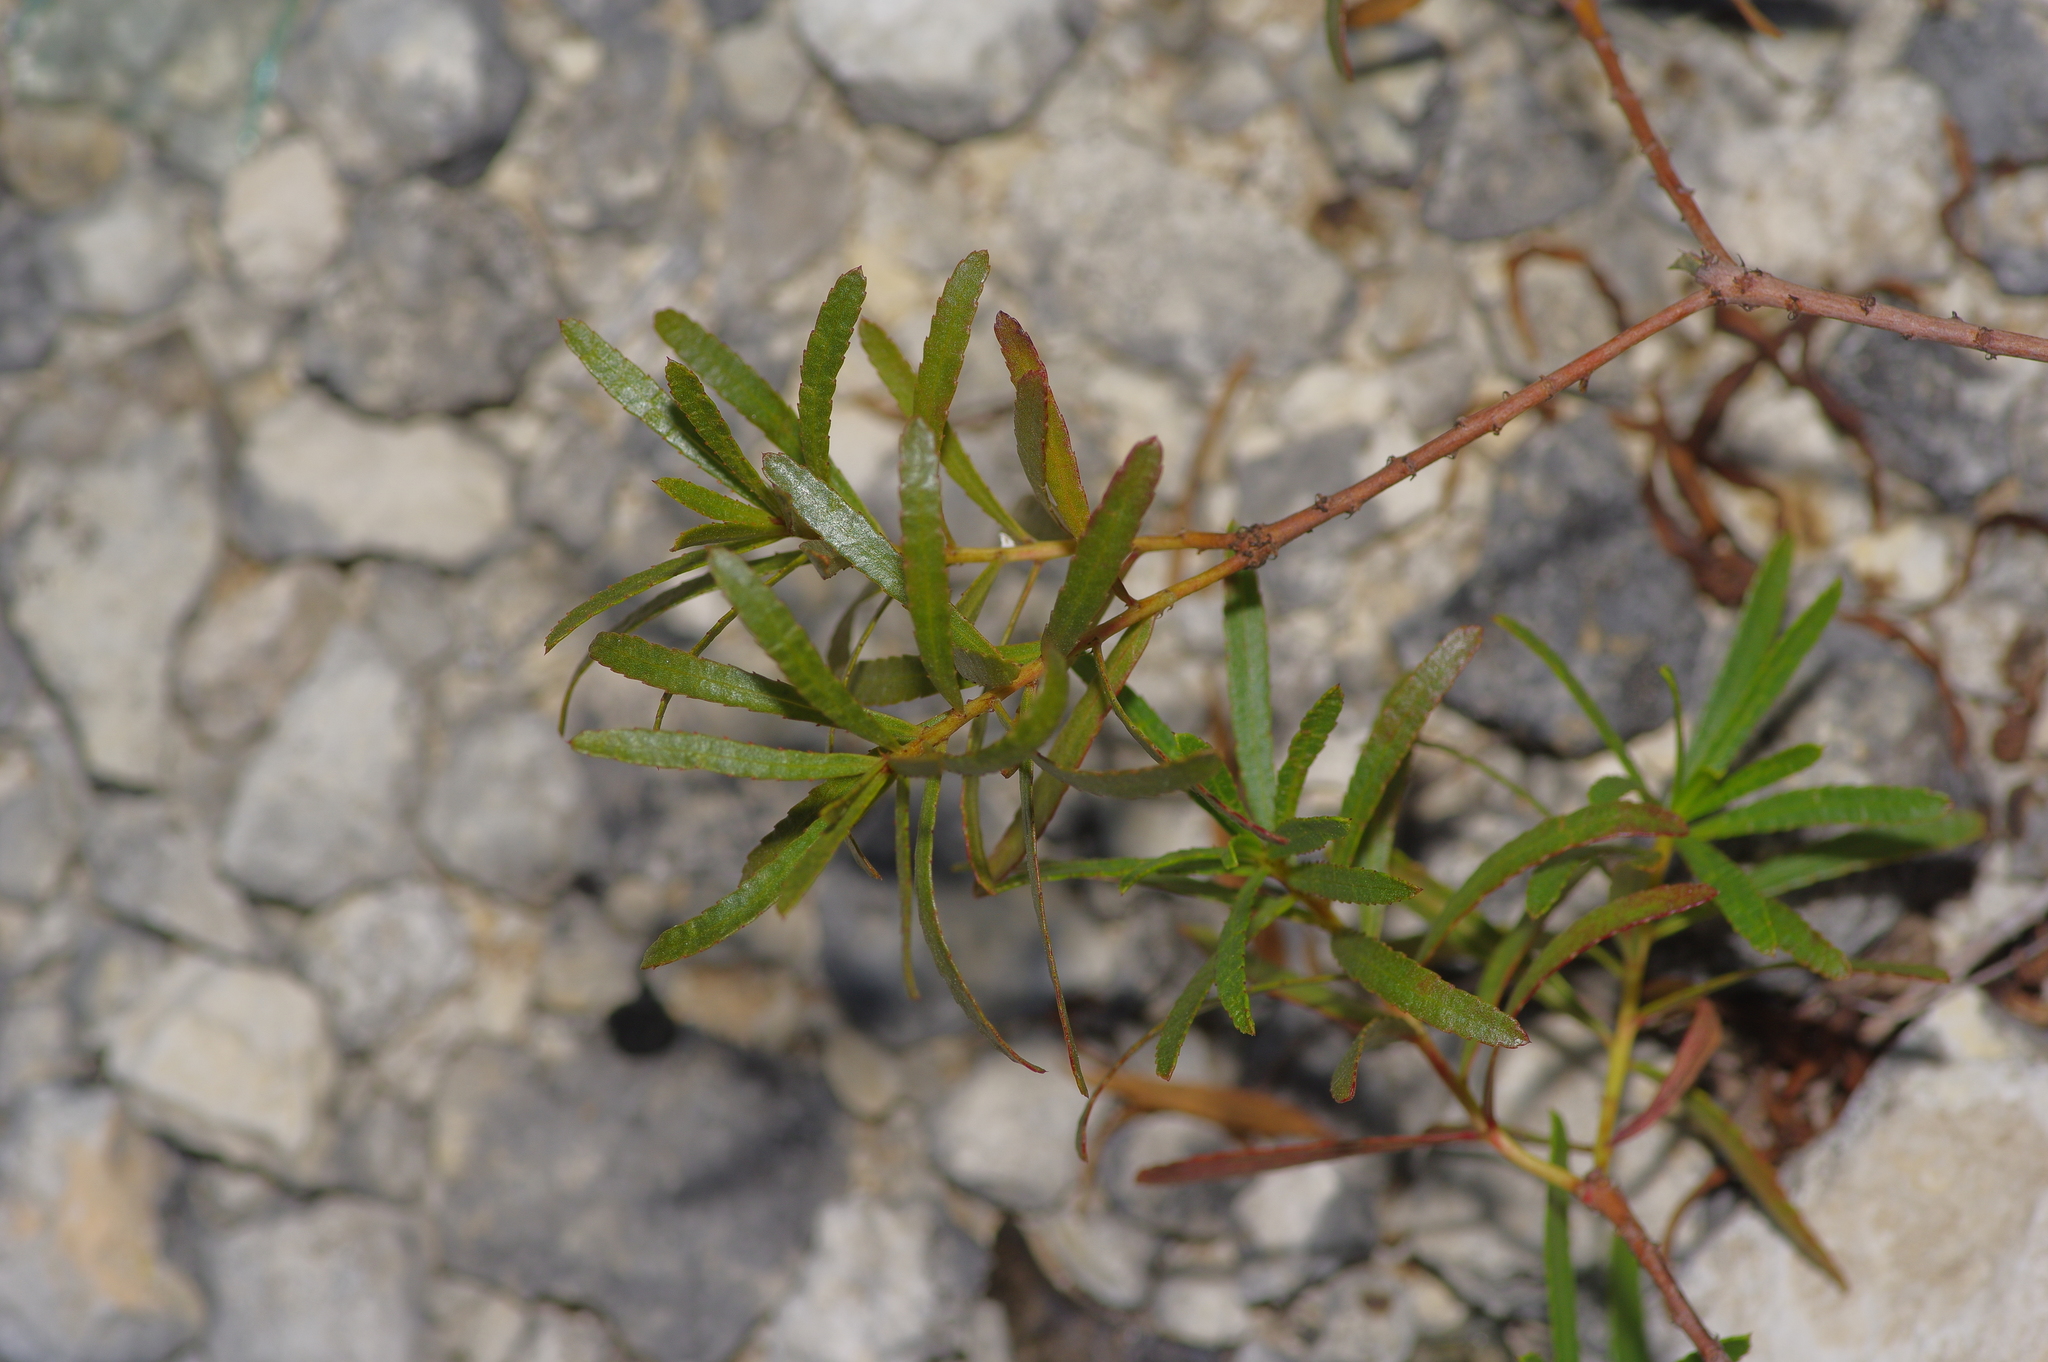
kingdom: Plantae
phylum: Tracheophyta
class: Magnoliopsida
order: Malpighiales
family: Euphorbiaceae
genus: Stillingia
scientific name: Stillingia texana
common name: Texas stillingia
